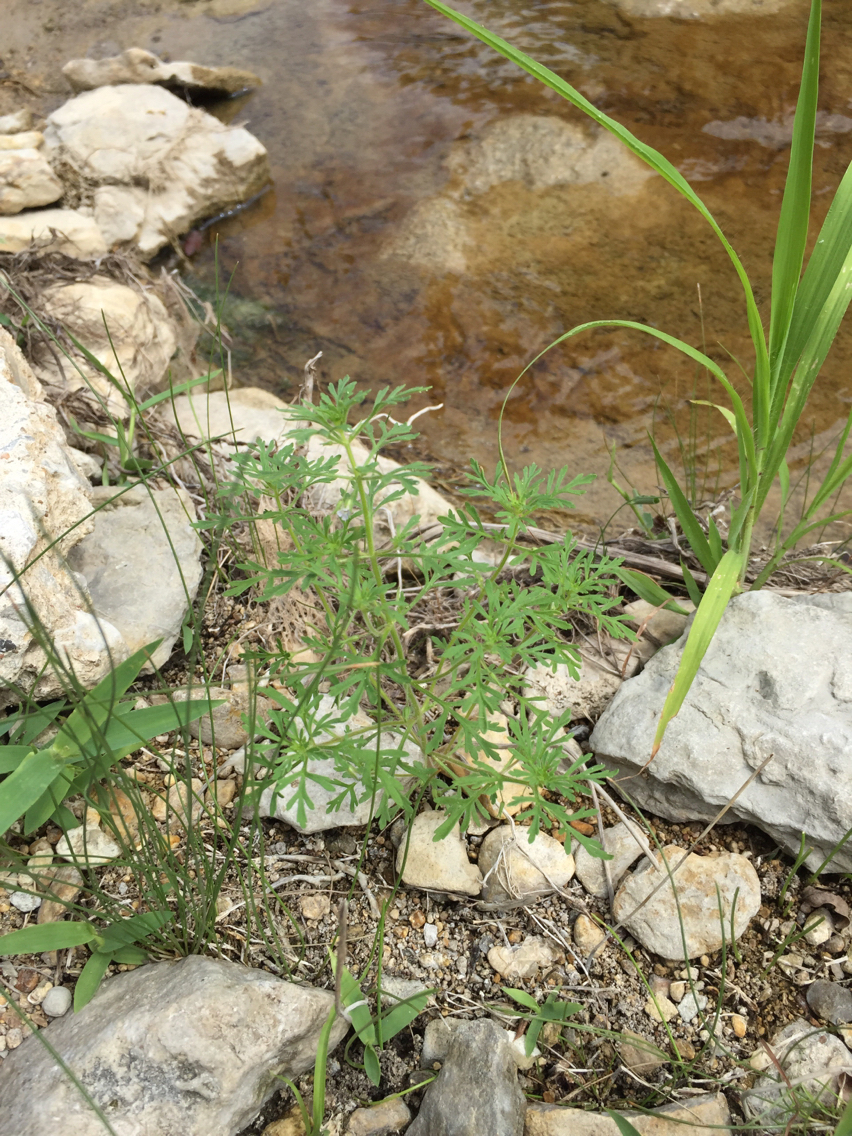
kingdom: Plantae
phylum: Tracheophyta
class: Magnoliopsida
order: Lamiales
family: Plantaginaceae
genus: Leucospora
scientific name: Leucospora multifida
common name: Narrow-leaf paleseed
